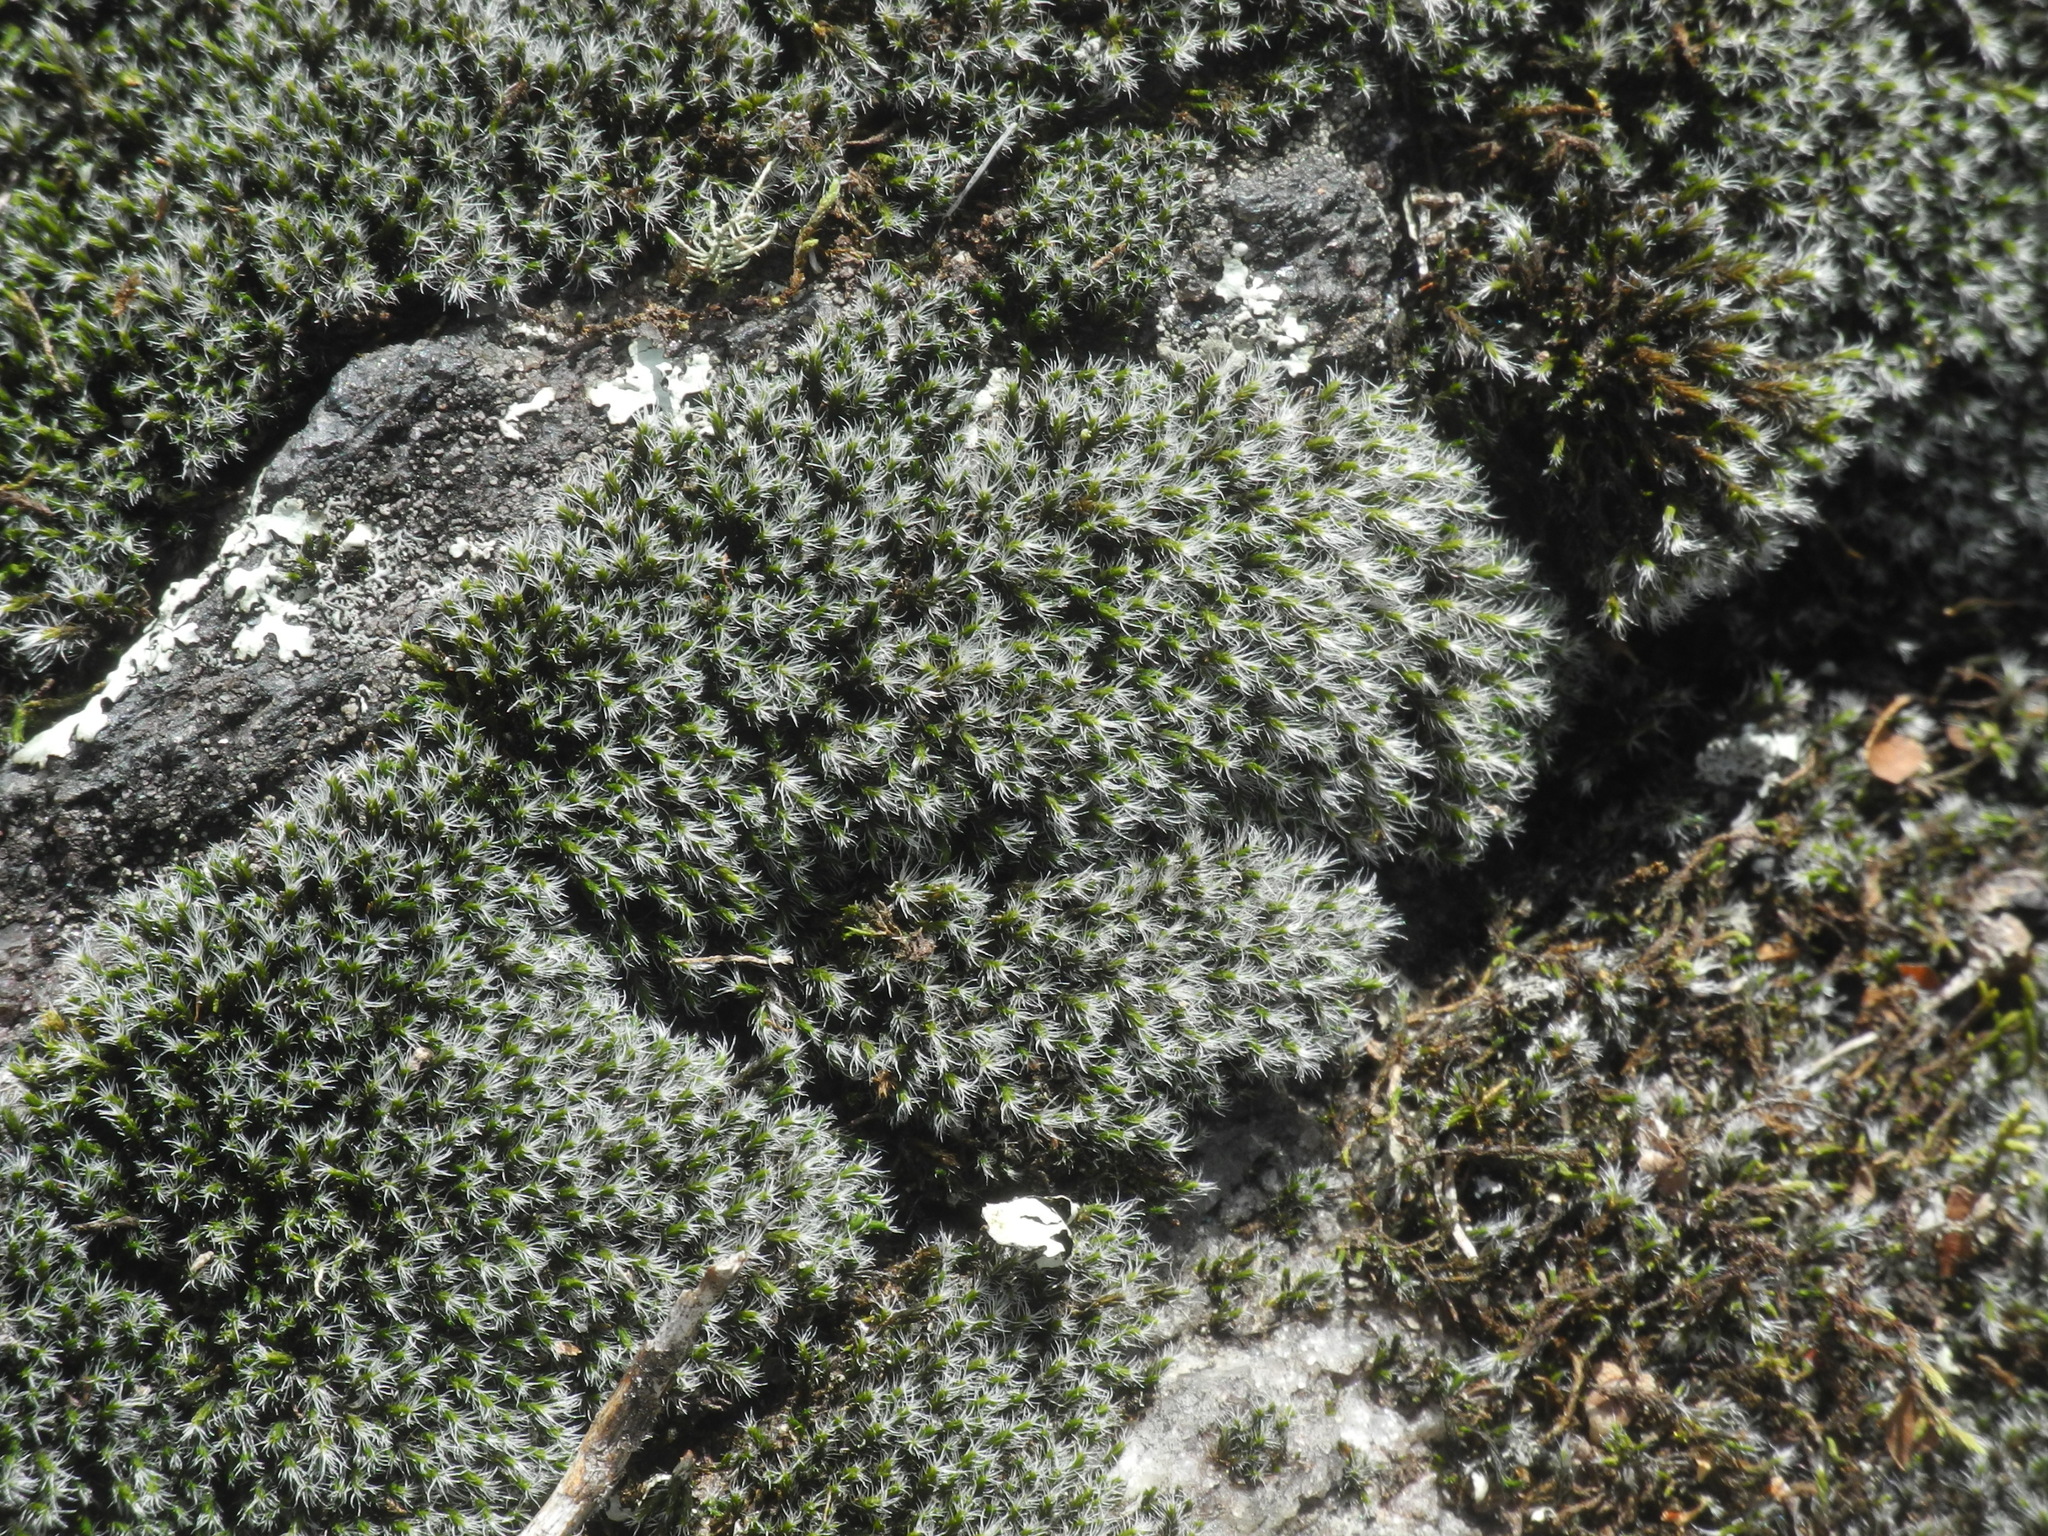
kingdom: Plantae
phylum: Bryophyta
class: Bryopsida
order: Grimmiales
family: Grimmiaceae
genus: Grimmia
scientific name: Grimmia laevigata
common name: Hoary grimmia
